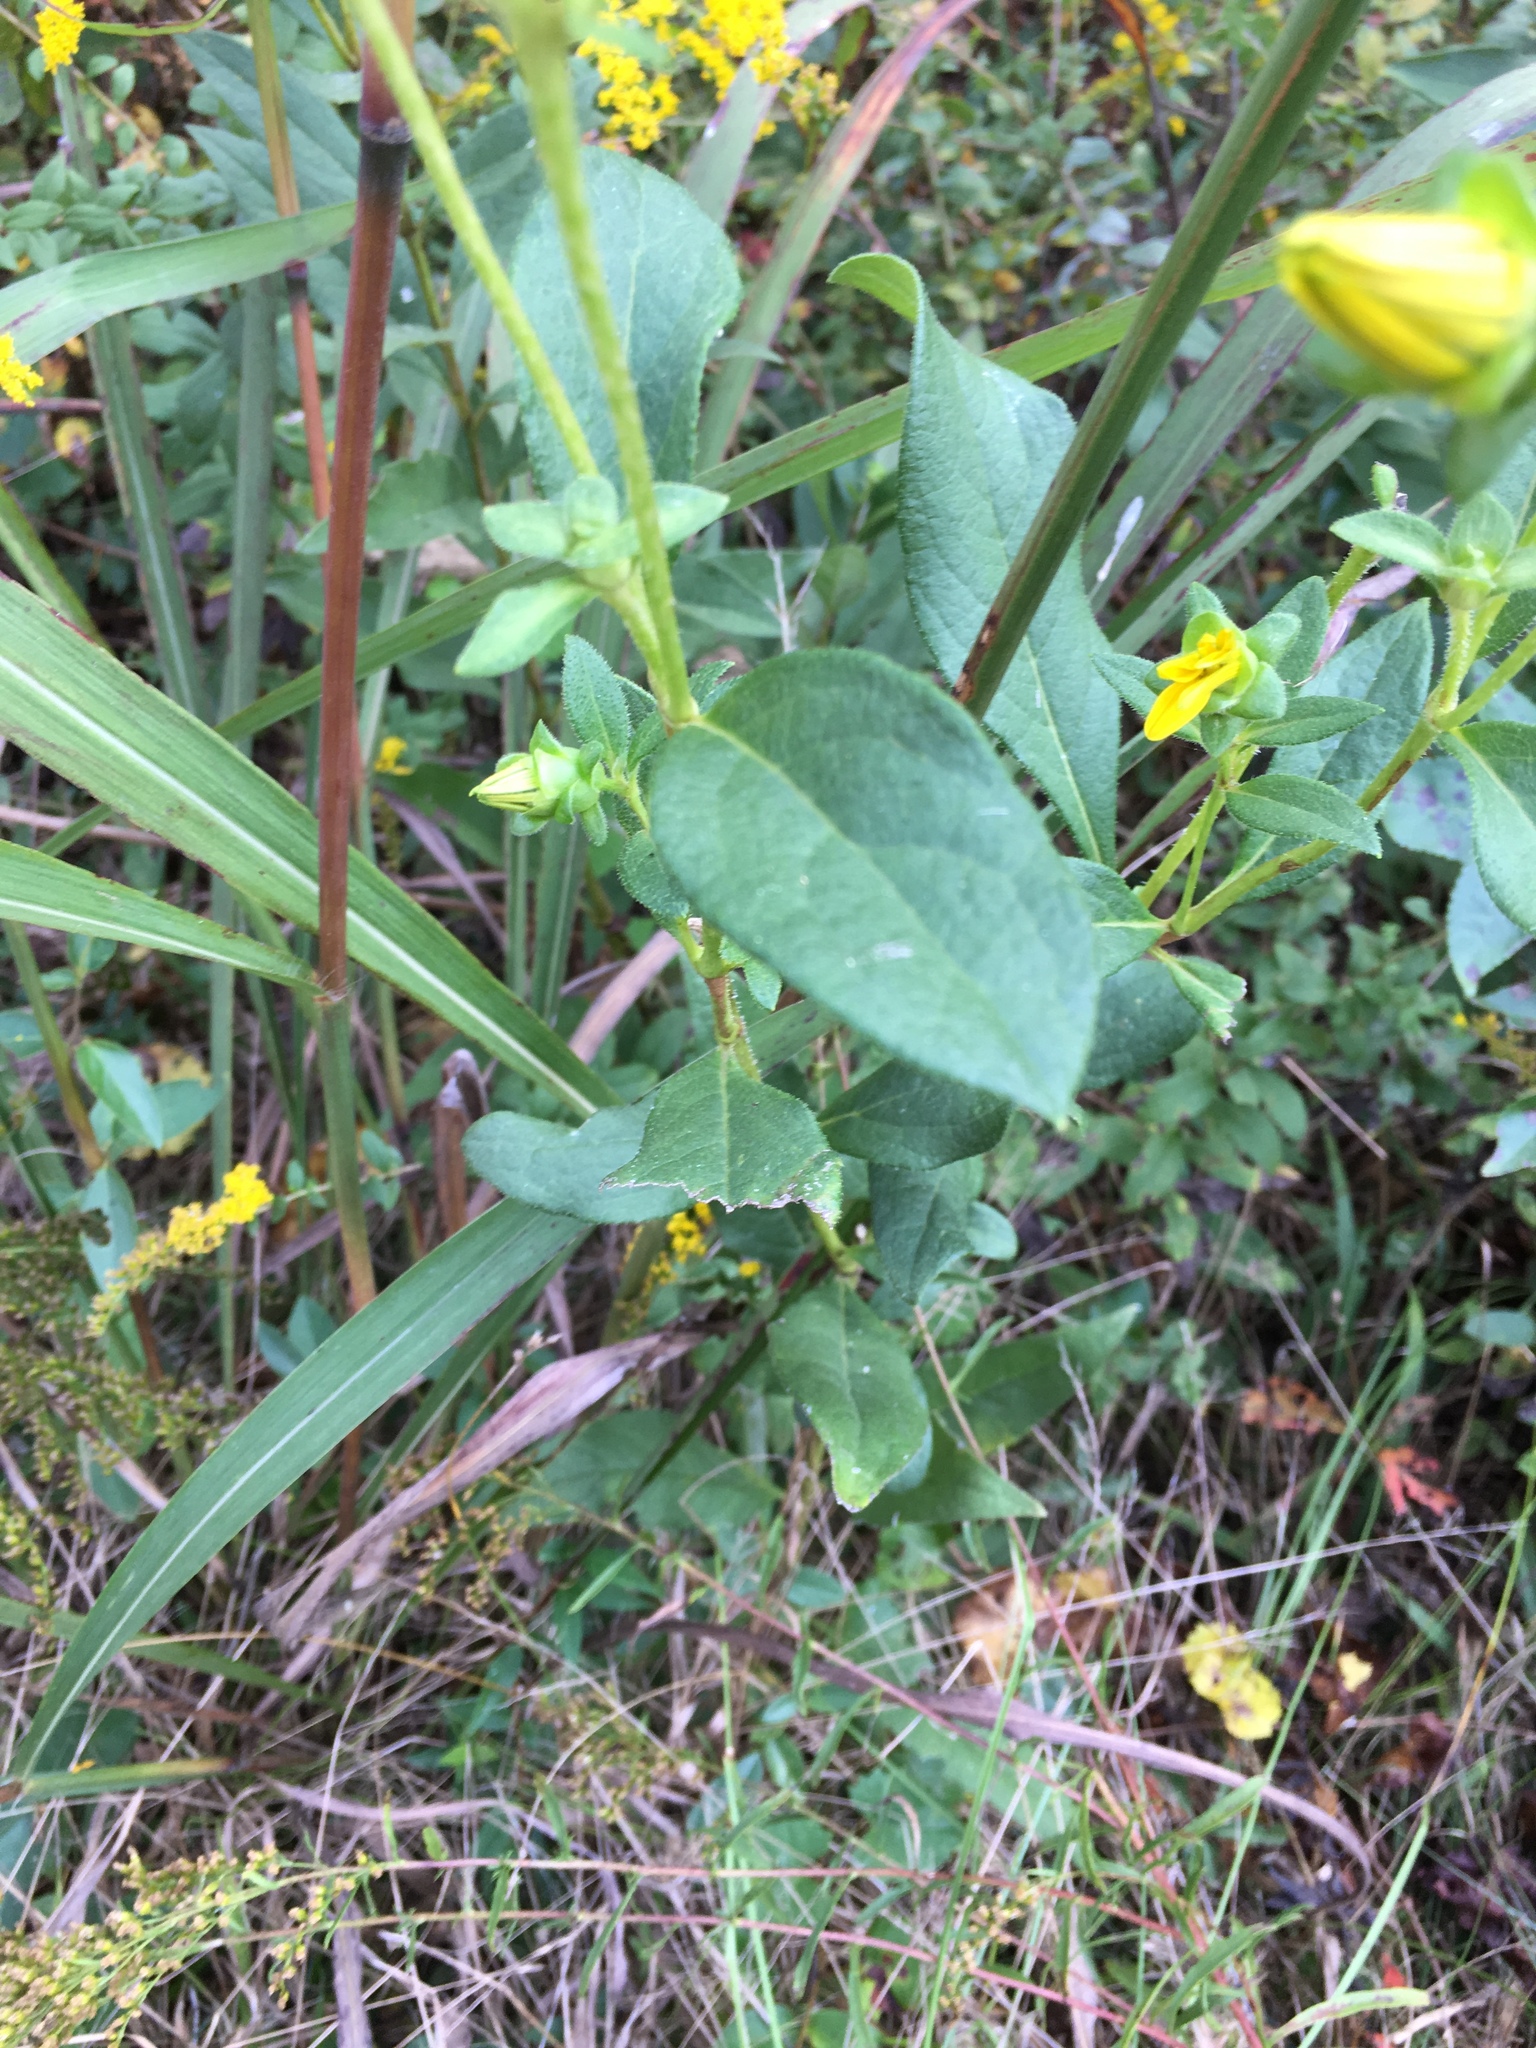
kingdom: Plantae
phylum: Tracheophyta
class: Magnoliopsida
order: Asterales
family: Asteraceae
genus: Silphium
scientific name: Silphium asteriscus
